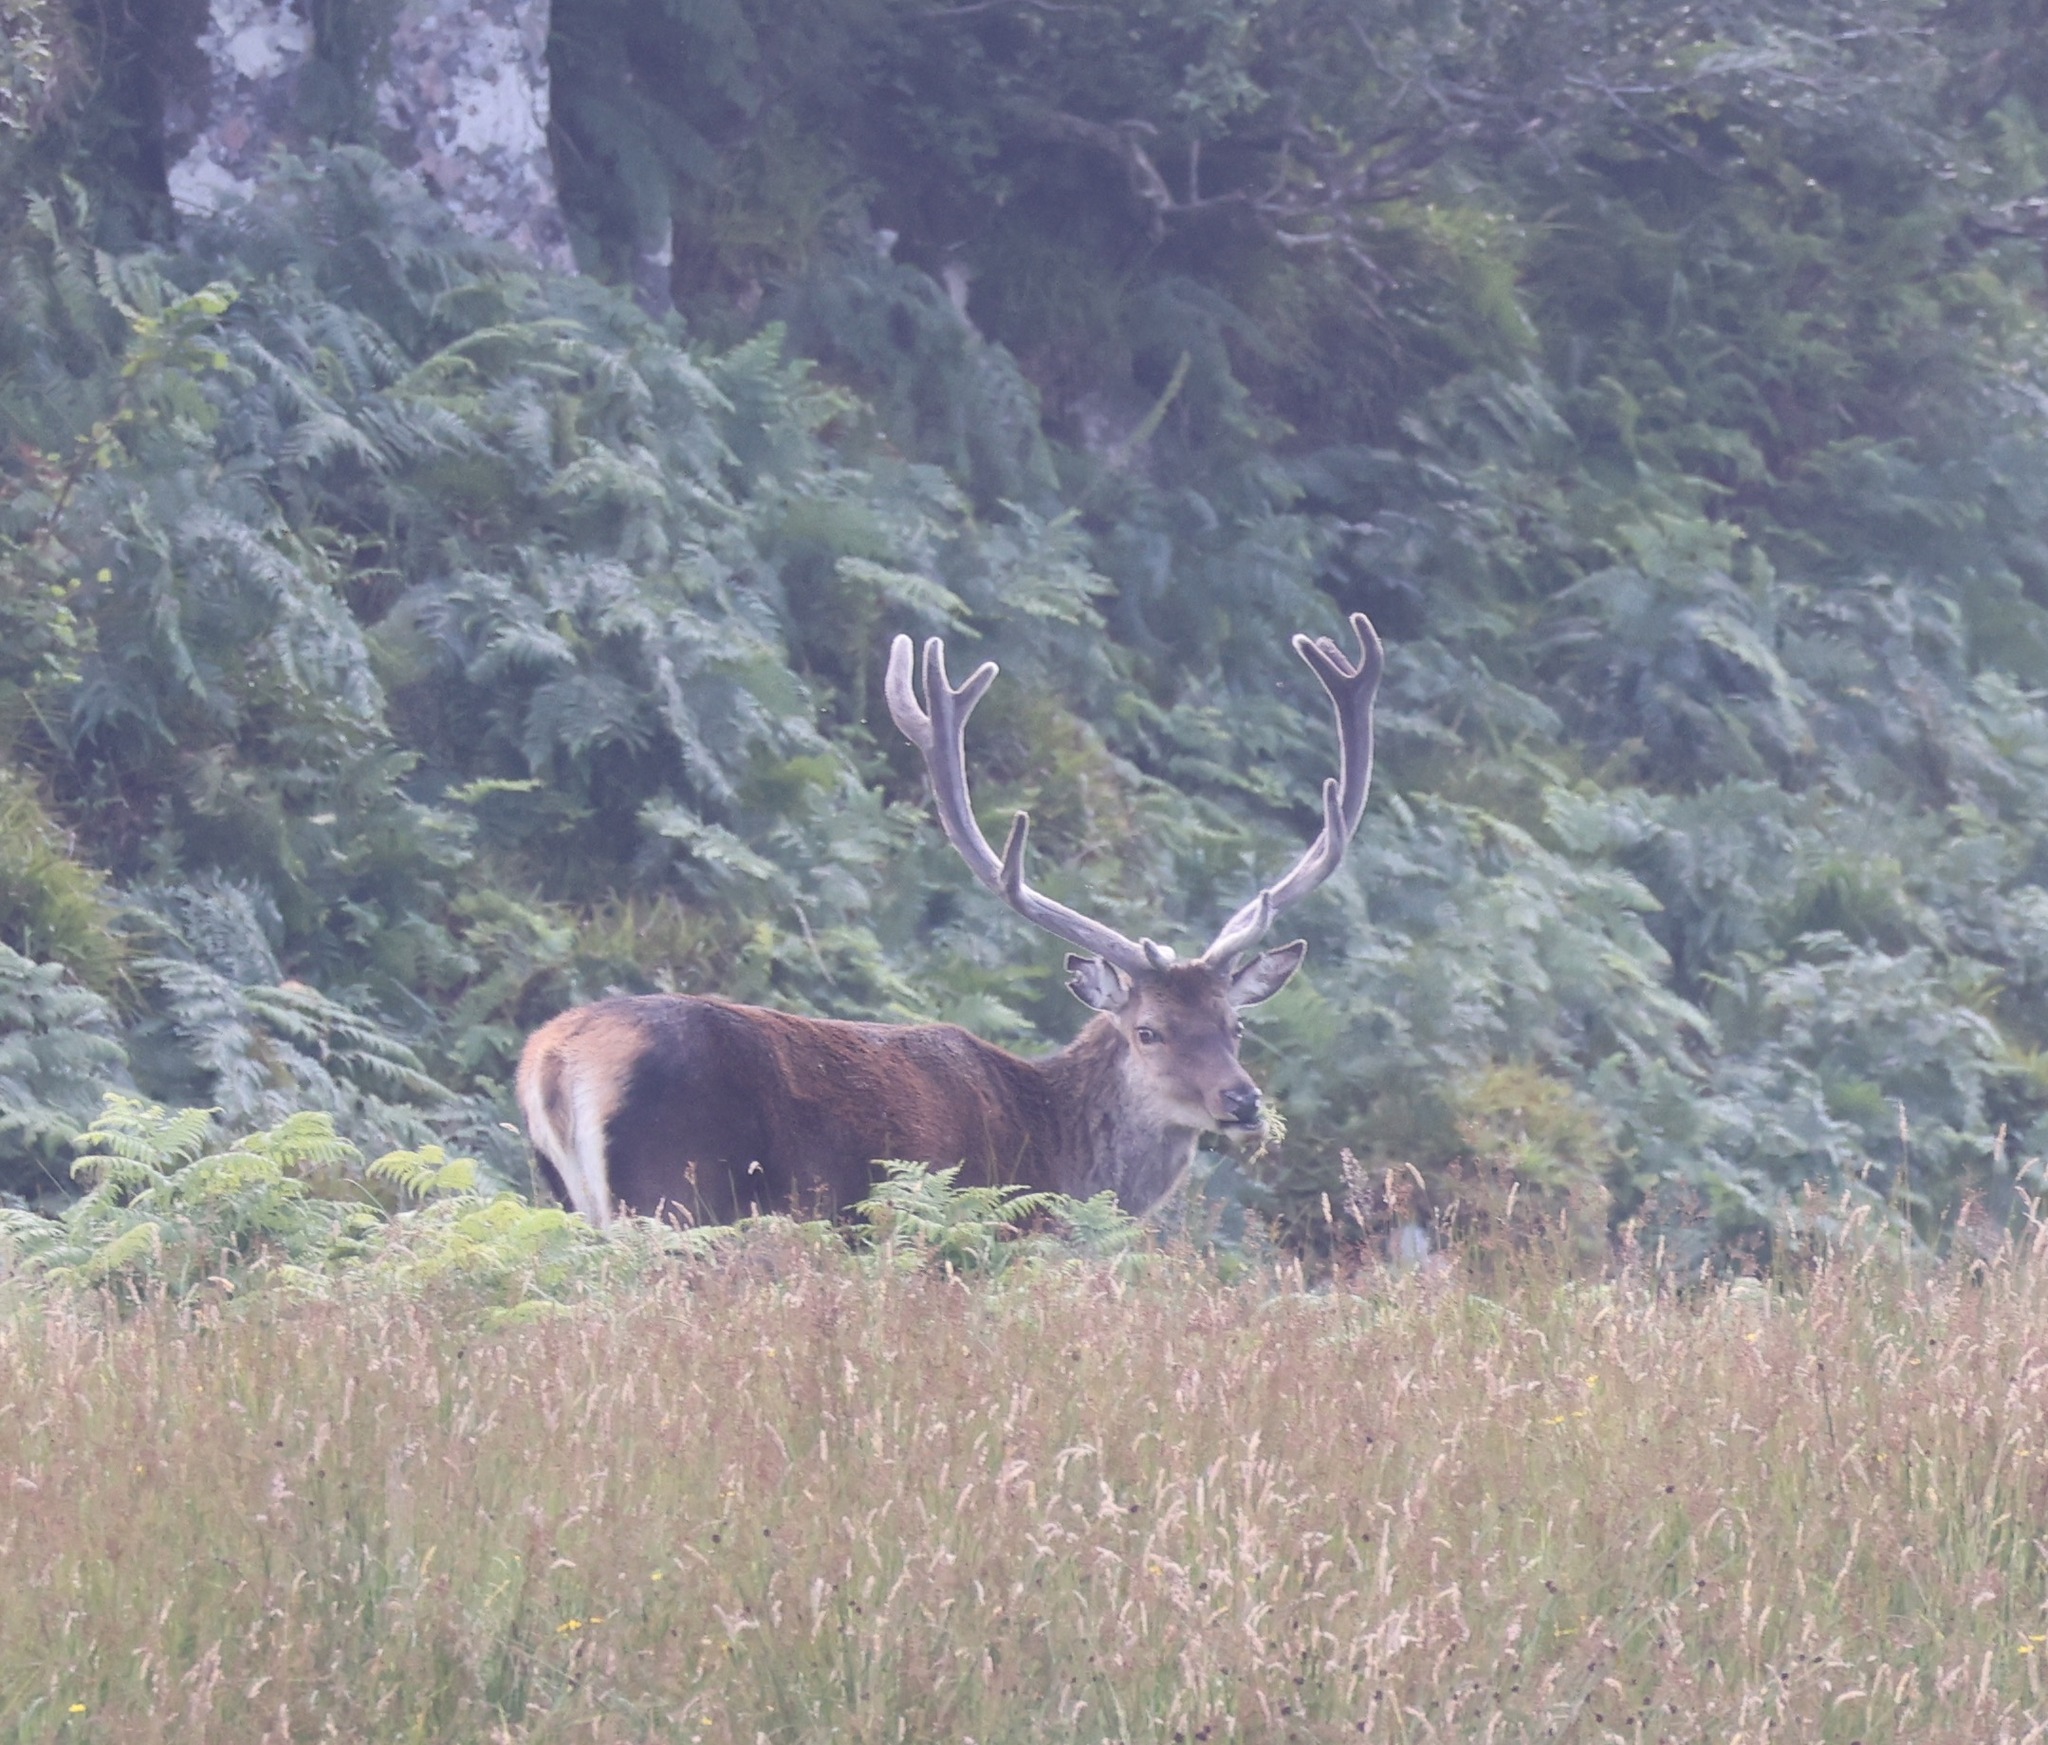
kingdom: Animalia
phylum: Chordata
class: Mammalia
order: Artiodactyla
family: Cervidae
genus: Cervus
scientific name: Cervus elaphus
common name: Red deer
